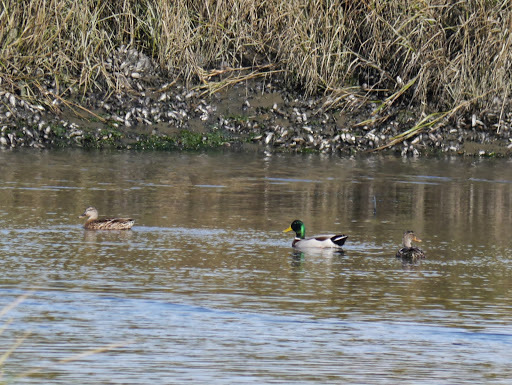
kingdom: Animalia
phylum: Chordata
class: Aves
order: Anseriformes
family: Anatidae
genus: Anas
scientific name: Anas platyrhynchos
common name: Mallard
